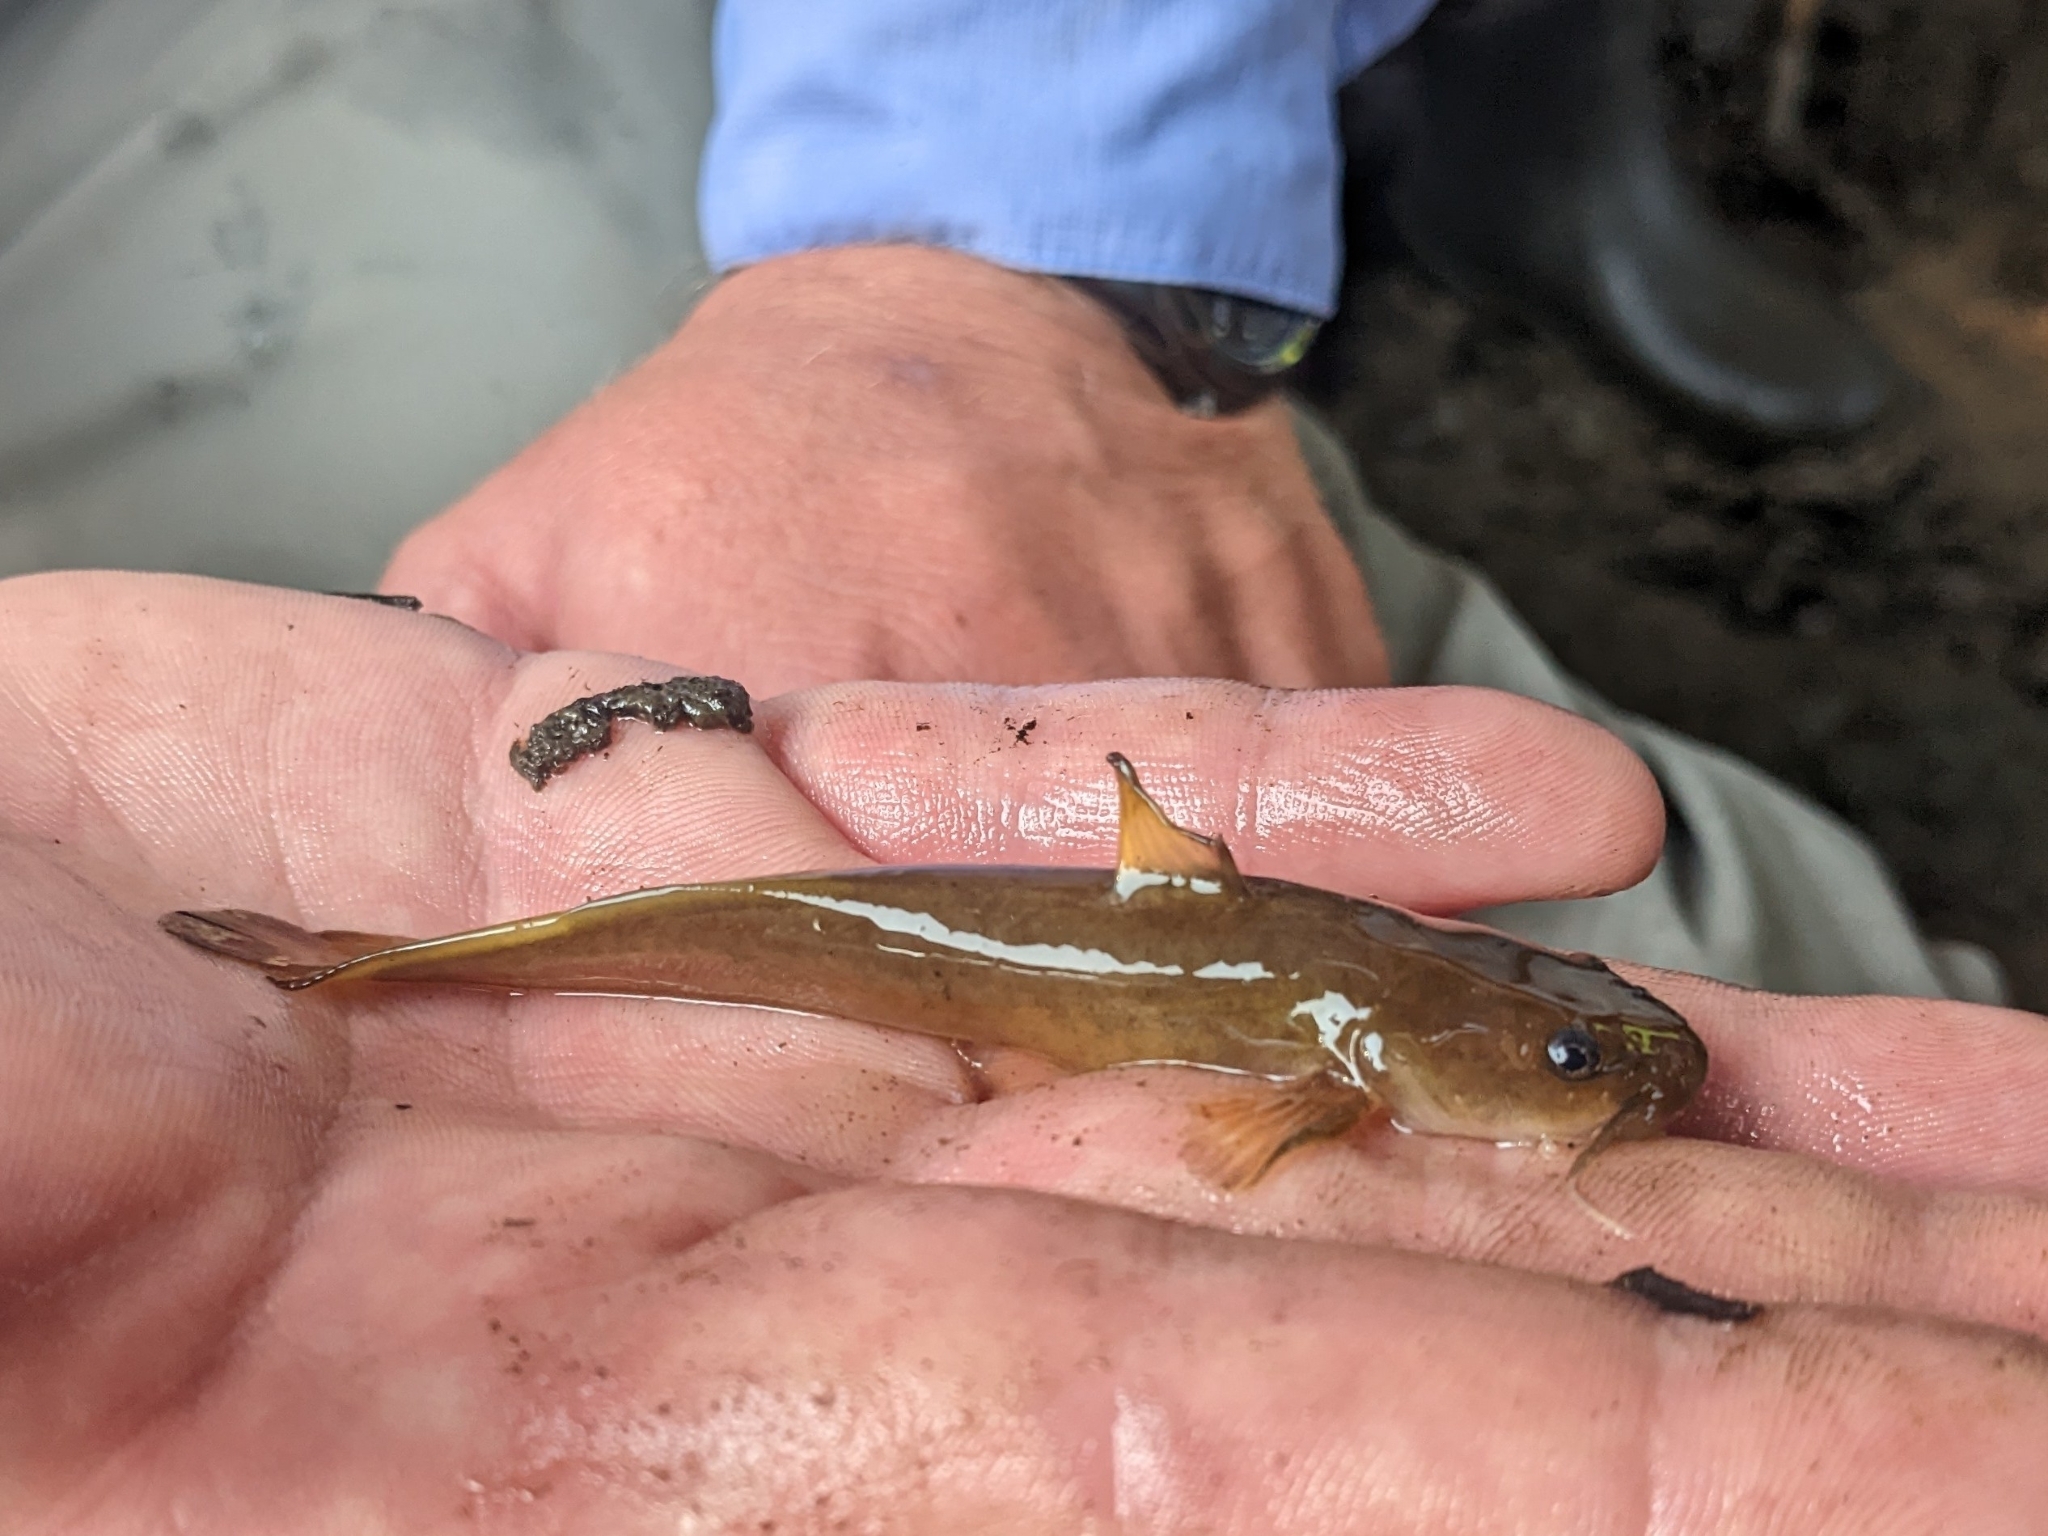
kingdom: Animalia
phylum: Chordata
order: Siluriformes
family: Ictaluridae
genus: Noturus
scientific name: Noturus flavus
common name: Stonecat
